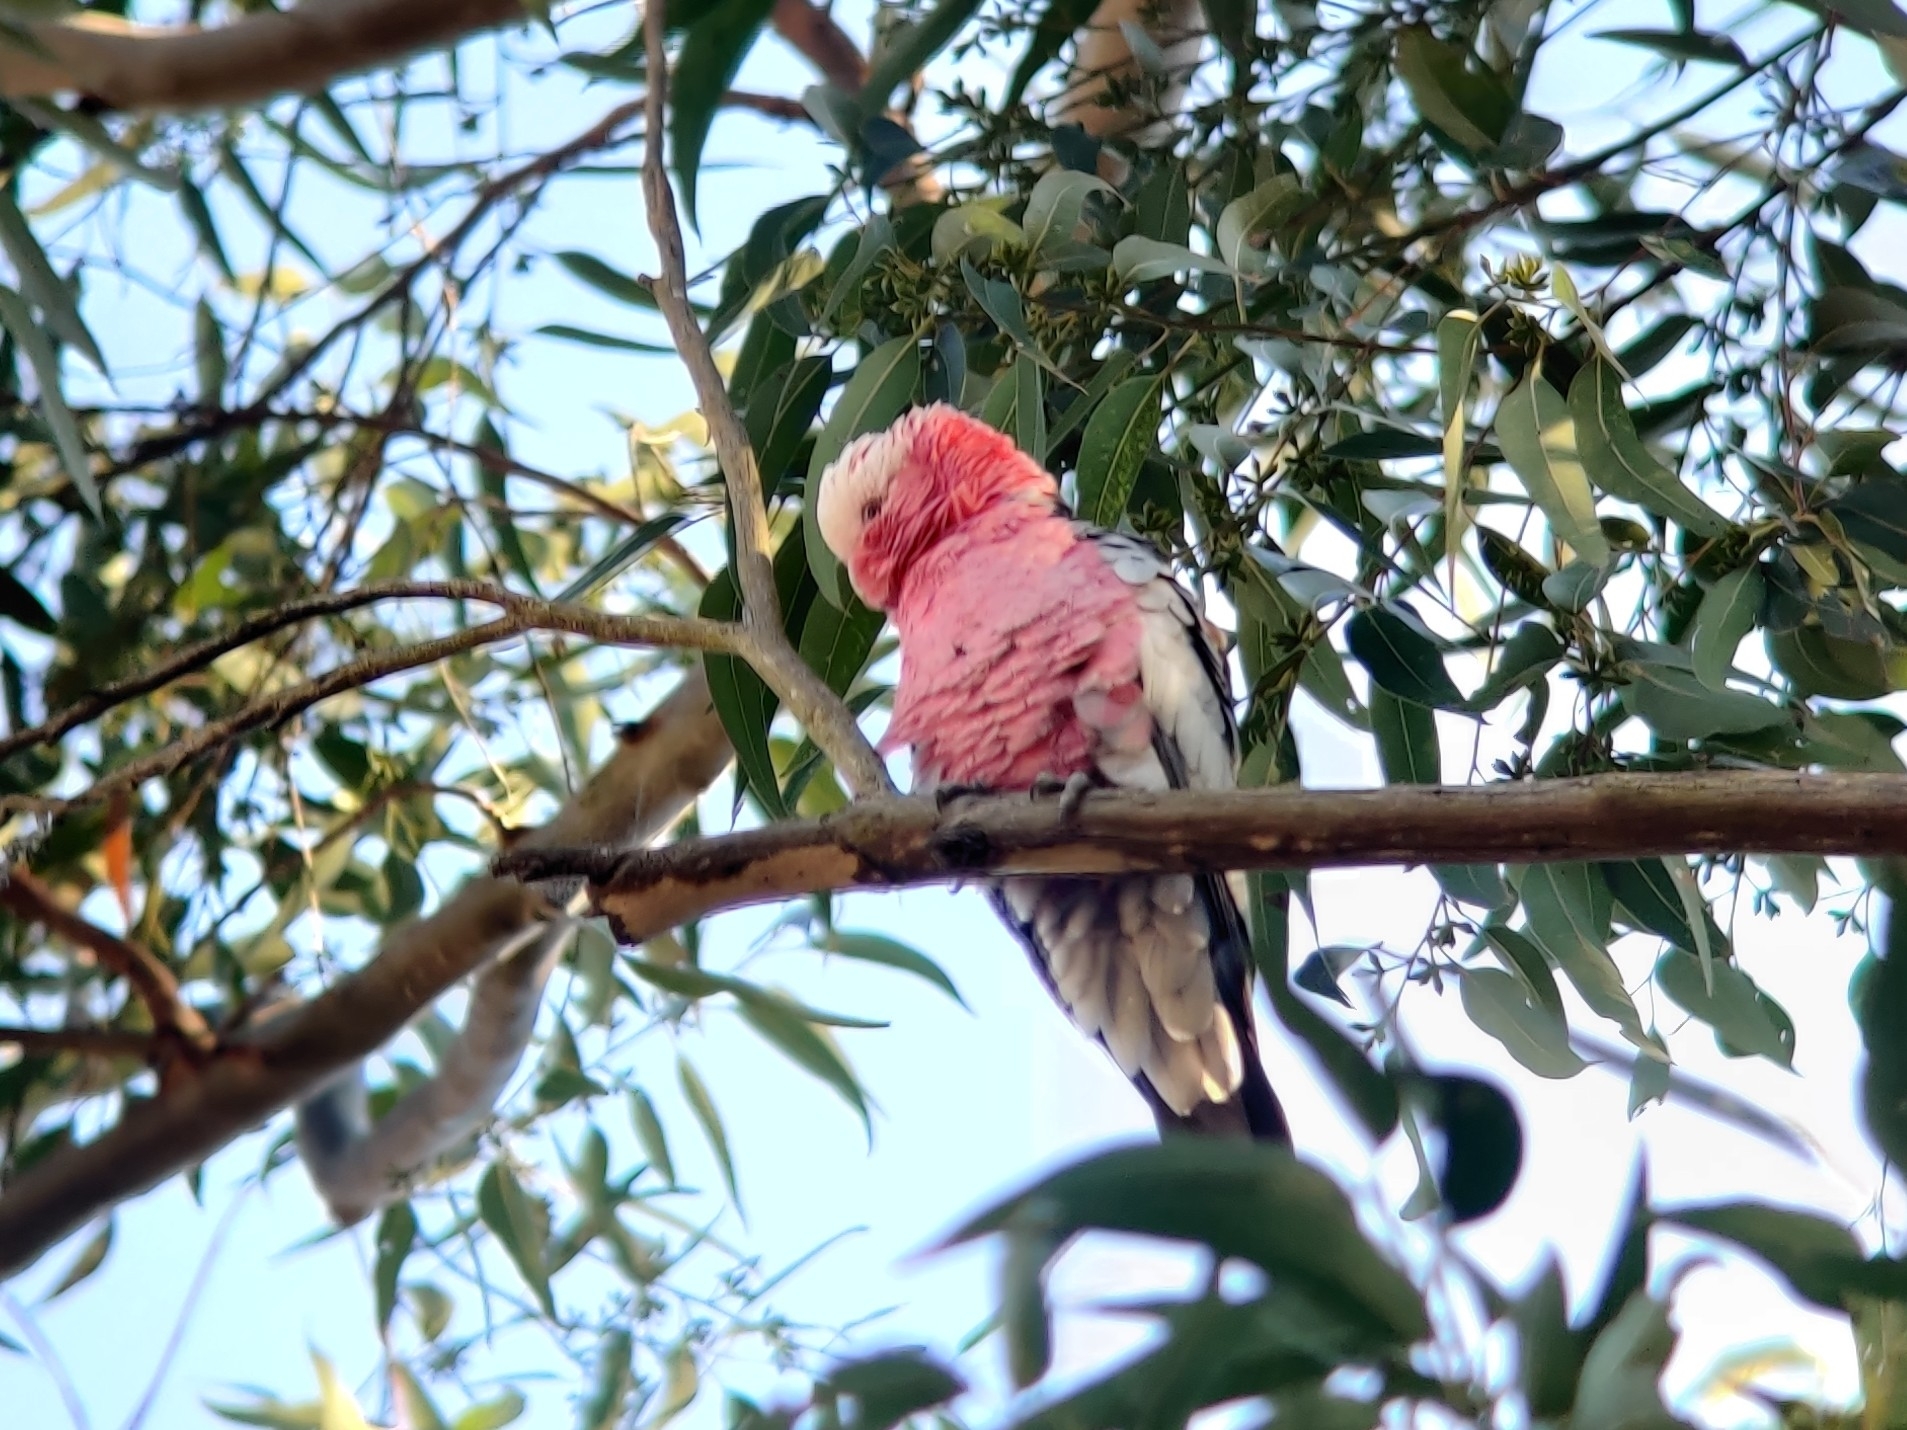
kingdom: Animalia
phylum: Chordata
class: Aves
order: Psittaciformes
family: Psittacidae
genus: Eolophus
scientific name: Eolophus roseicapilla
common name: Galah
